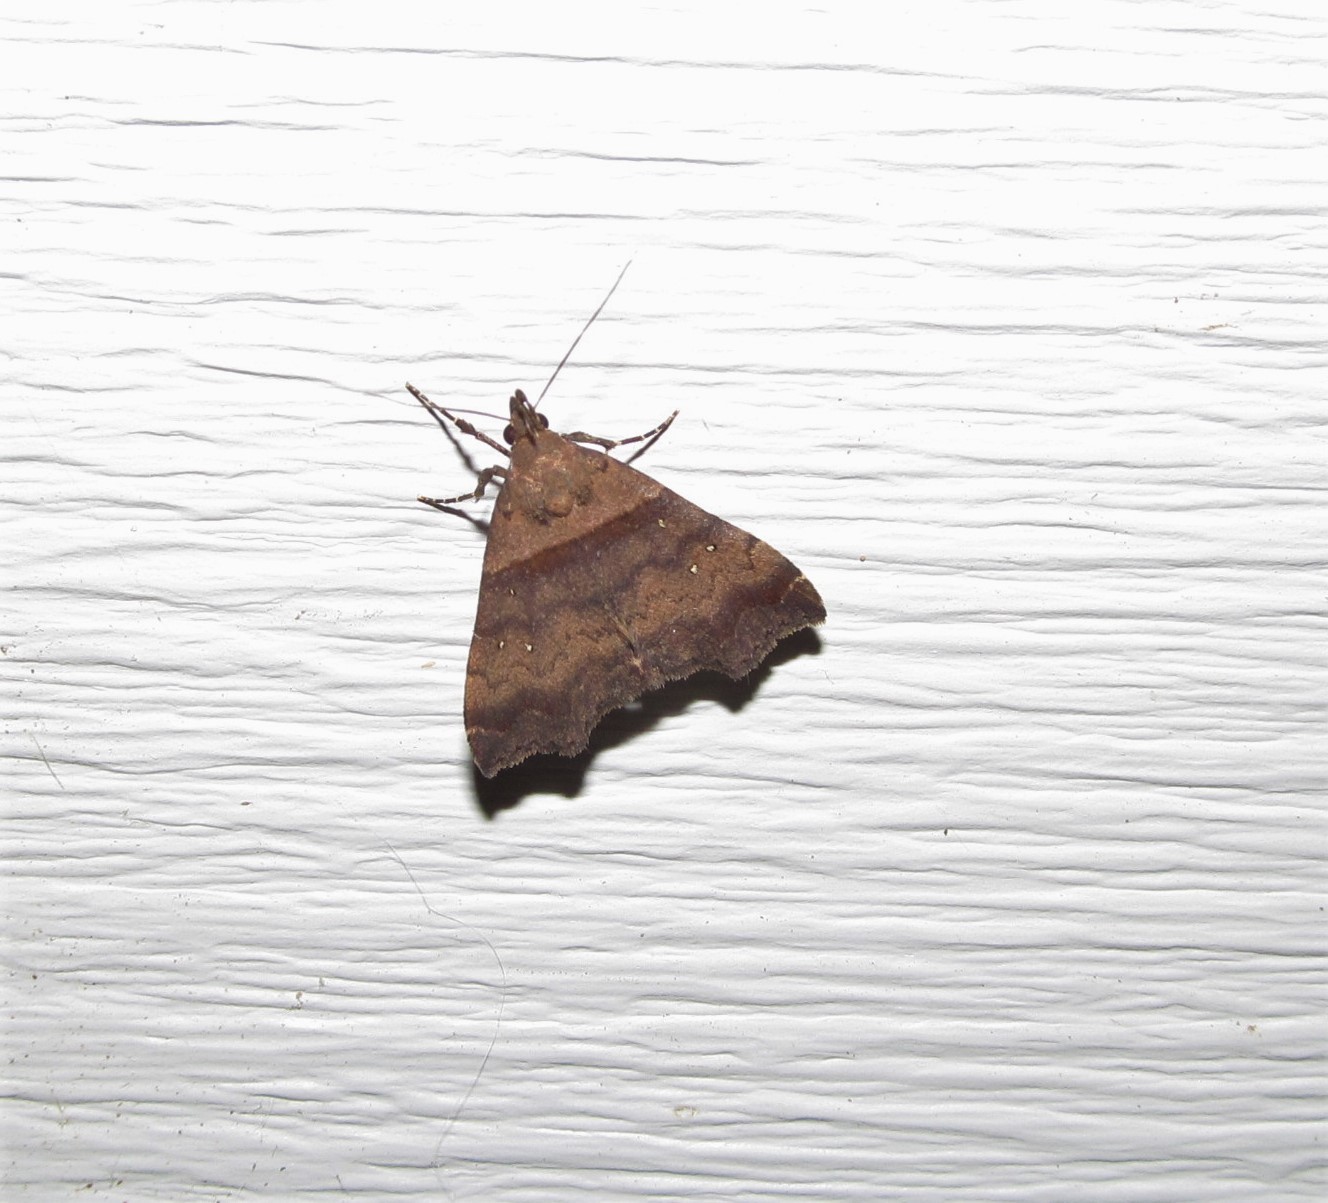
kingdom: Animalia
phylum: Arthropoda
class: Insecta
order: Lepidoptera
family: Erebidae
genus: Lascoria
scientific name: Lascoria ambigualis
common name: Ambiguous moth
